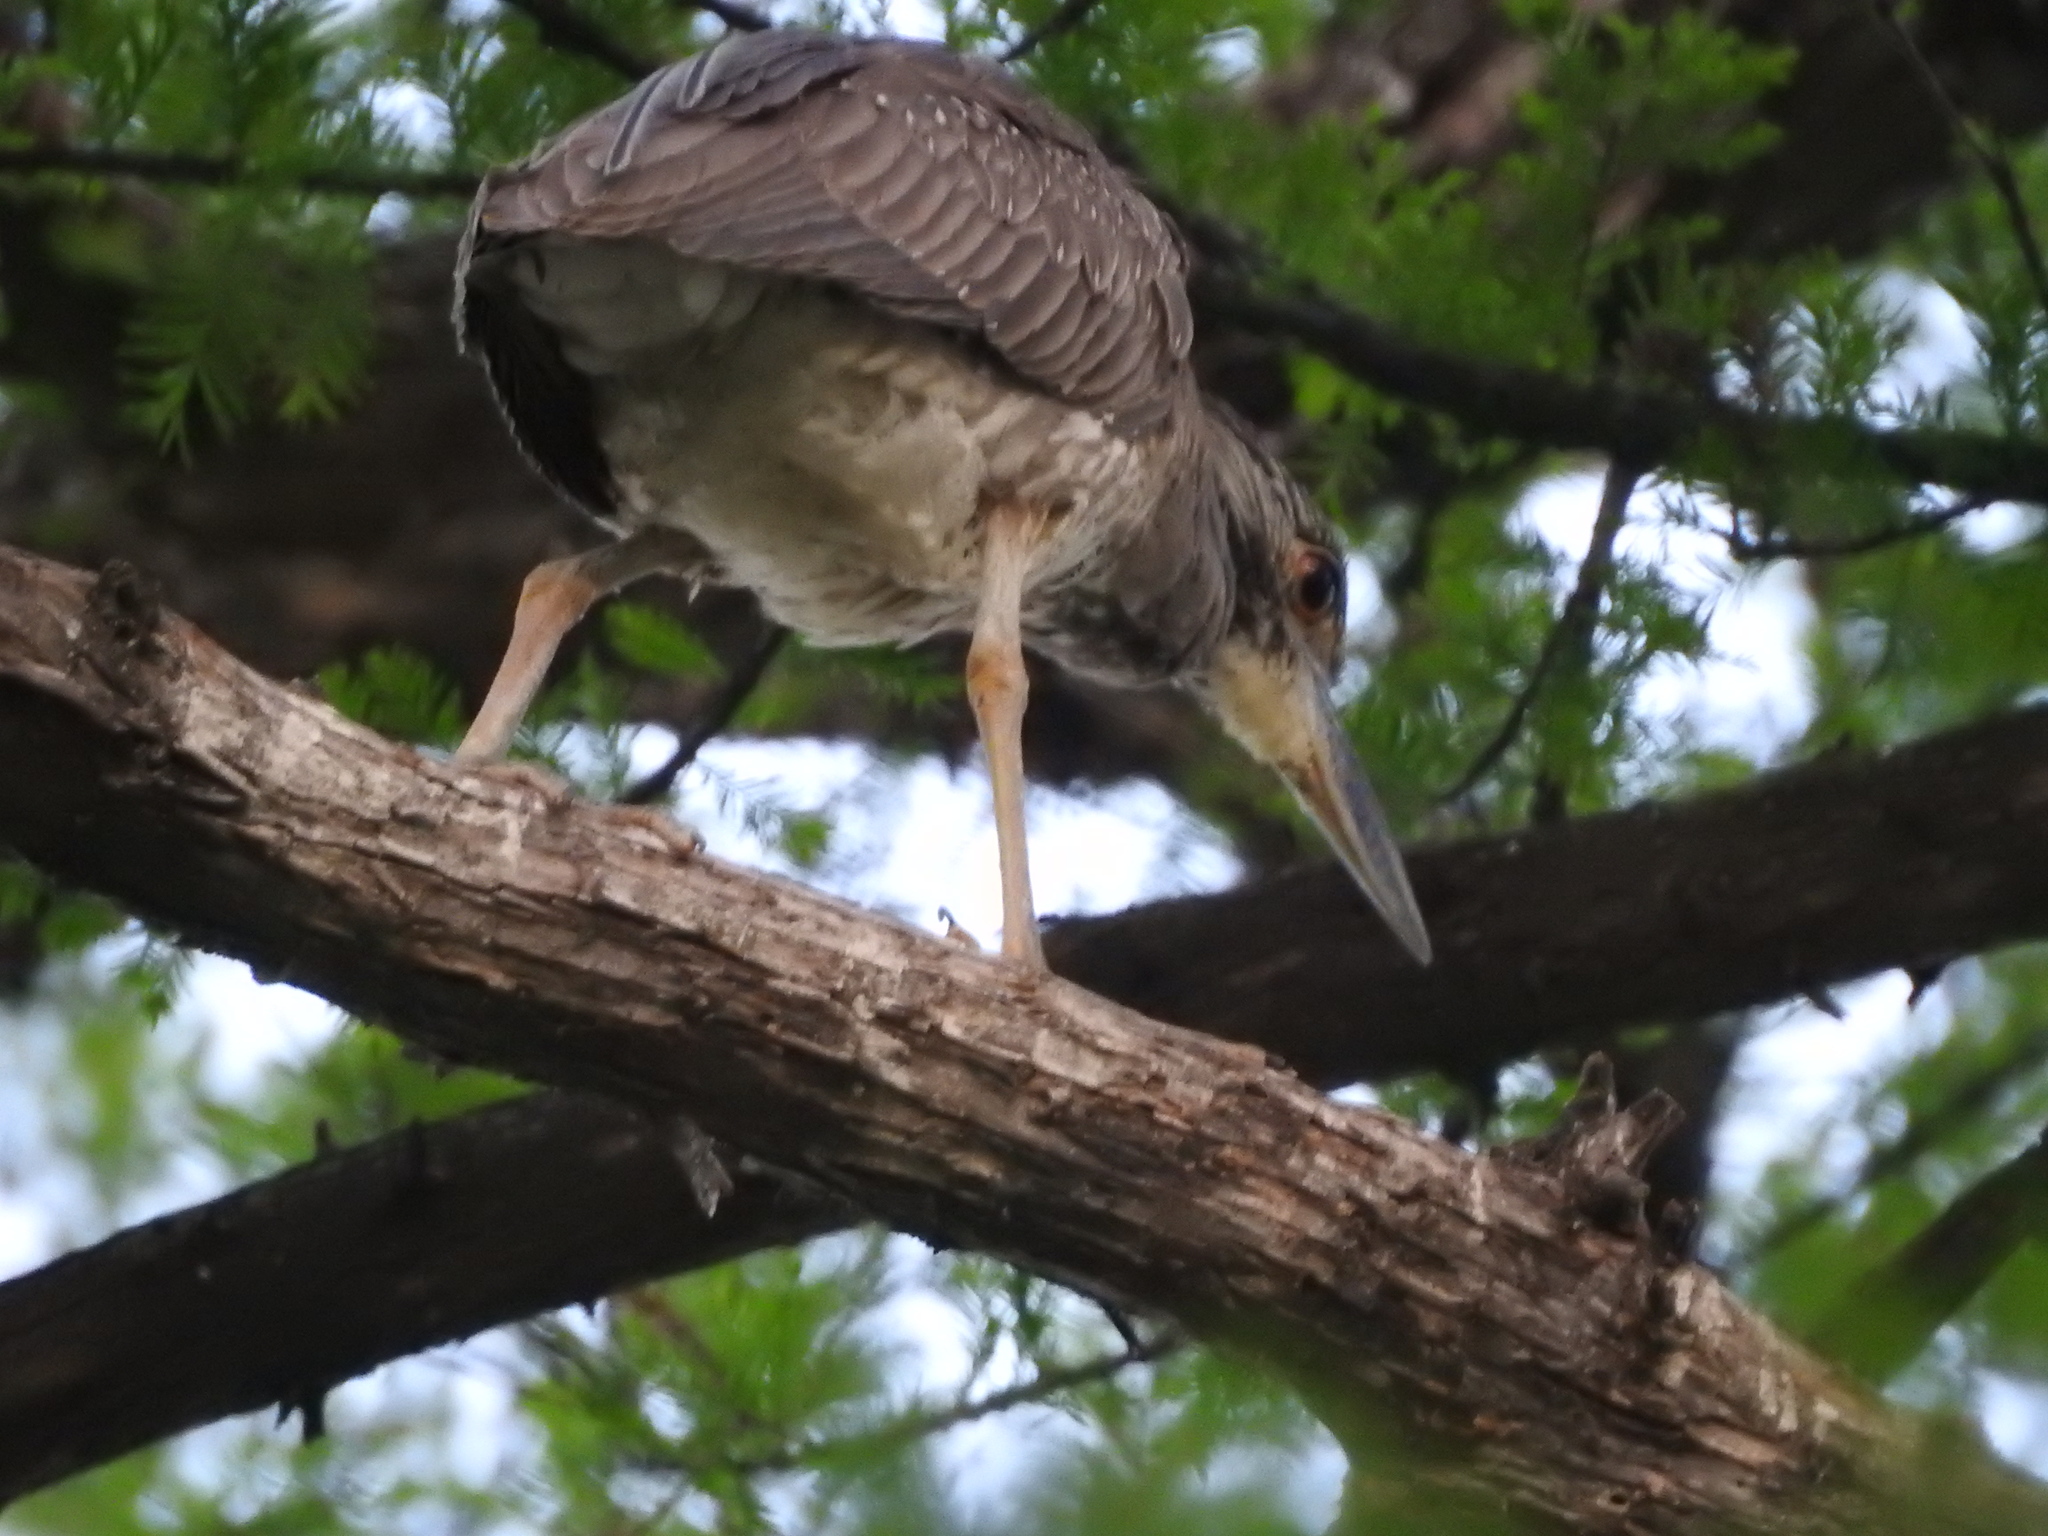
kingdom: Animalia
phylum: Chordata
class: Aves
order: Pelecaniformes
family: Ardeidae
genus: Nyctanassa
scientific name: Nyctanassa violacea
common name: Yellow-crowned night heron
